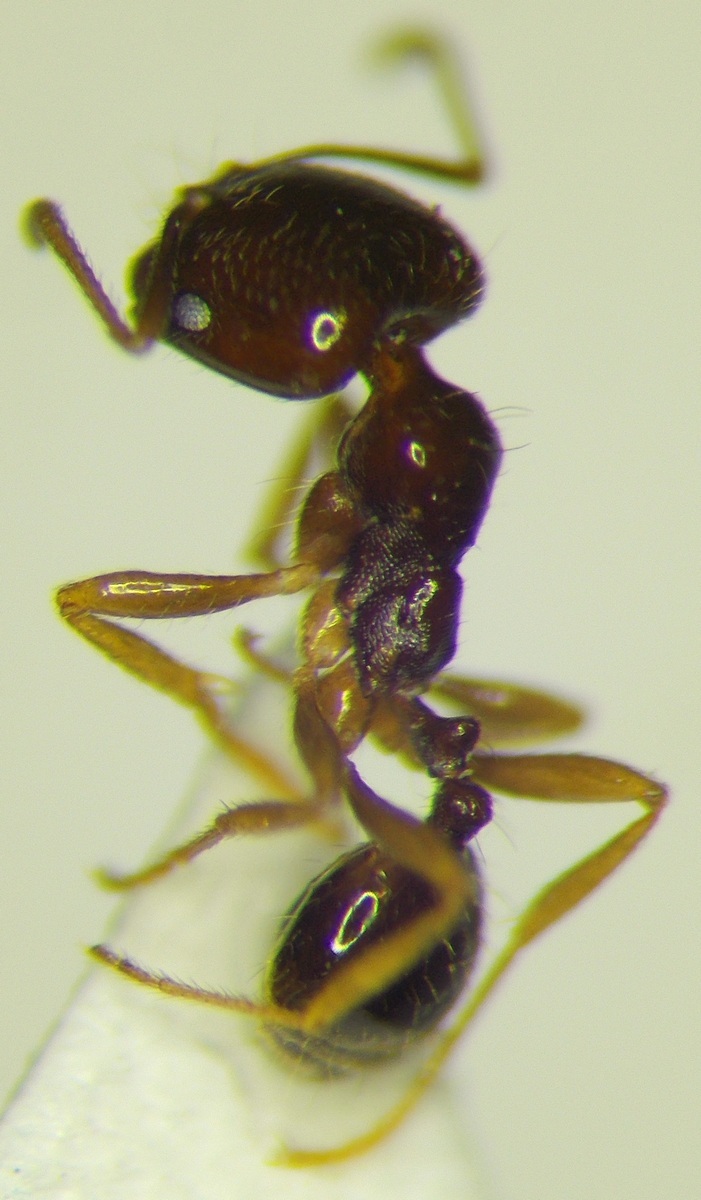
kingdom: Animalia
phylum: Arthropoda
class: Insecta
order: Hymenoptera
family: Formicidae
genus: Monomorium
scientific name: Monomorium perplexum
